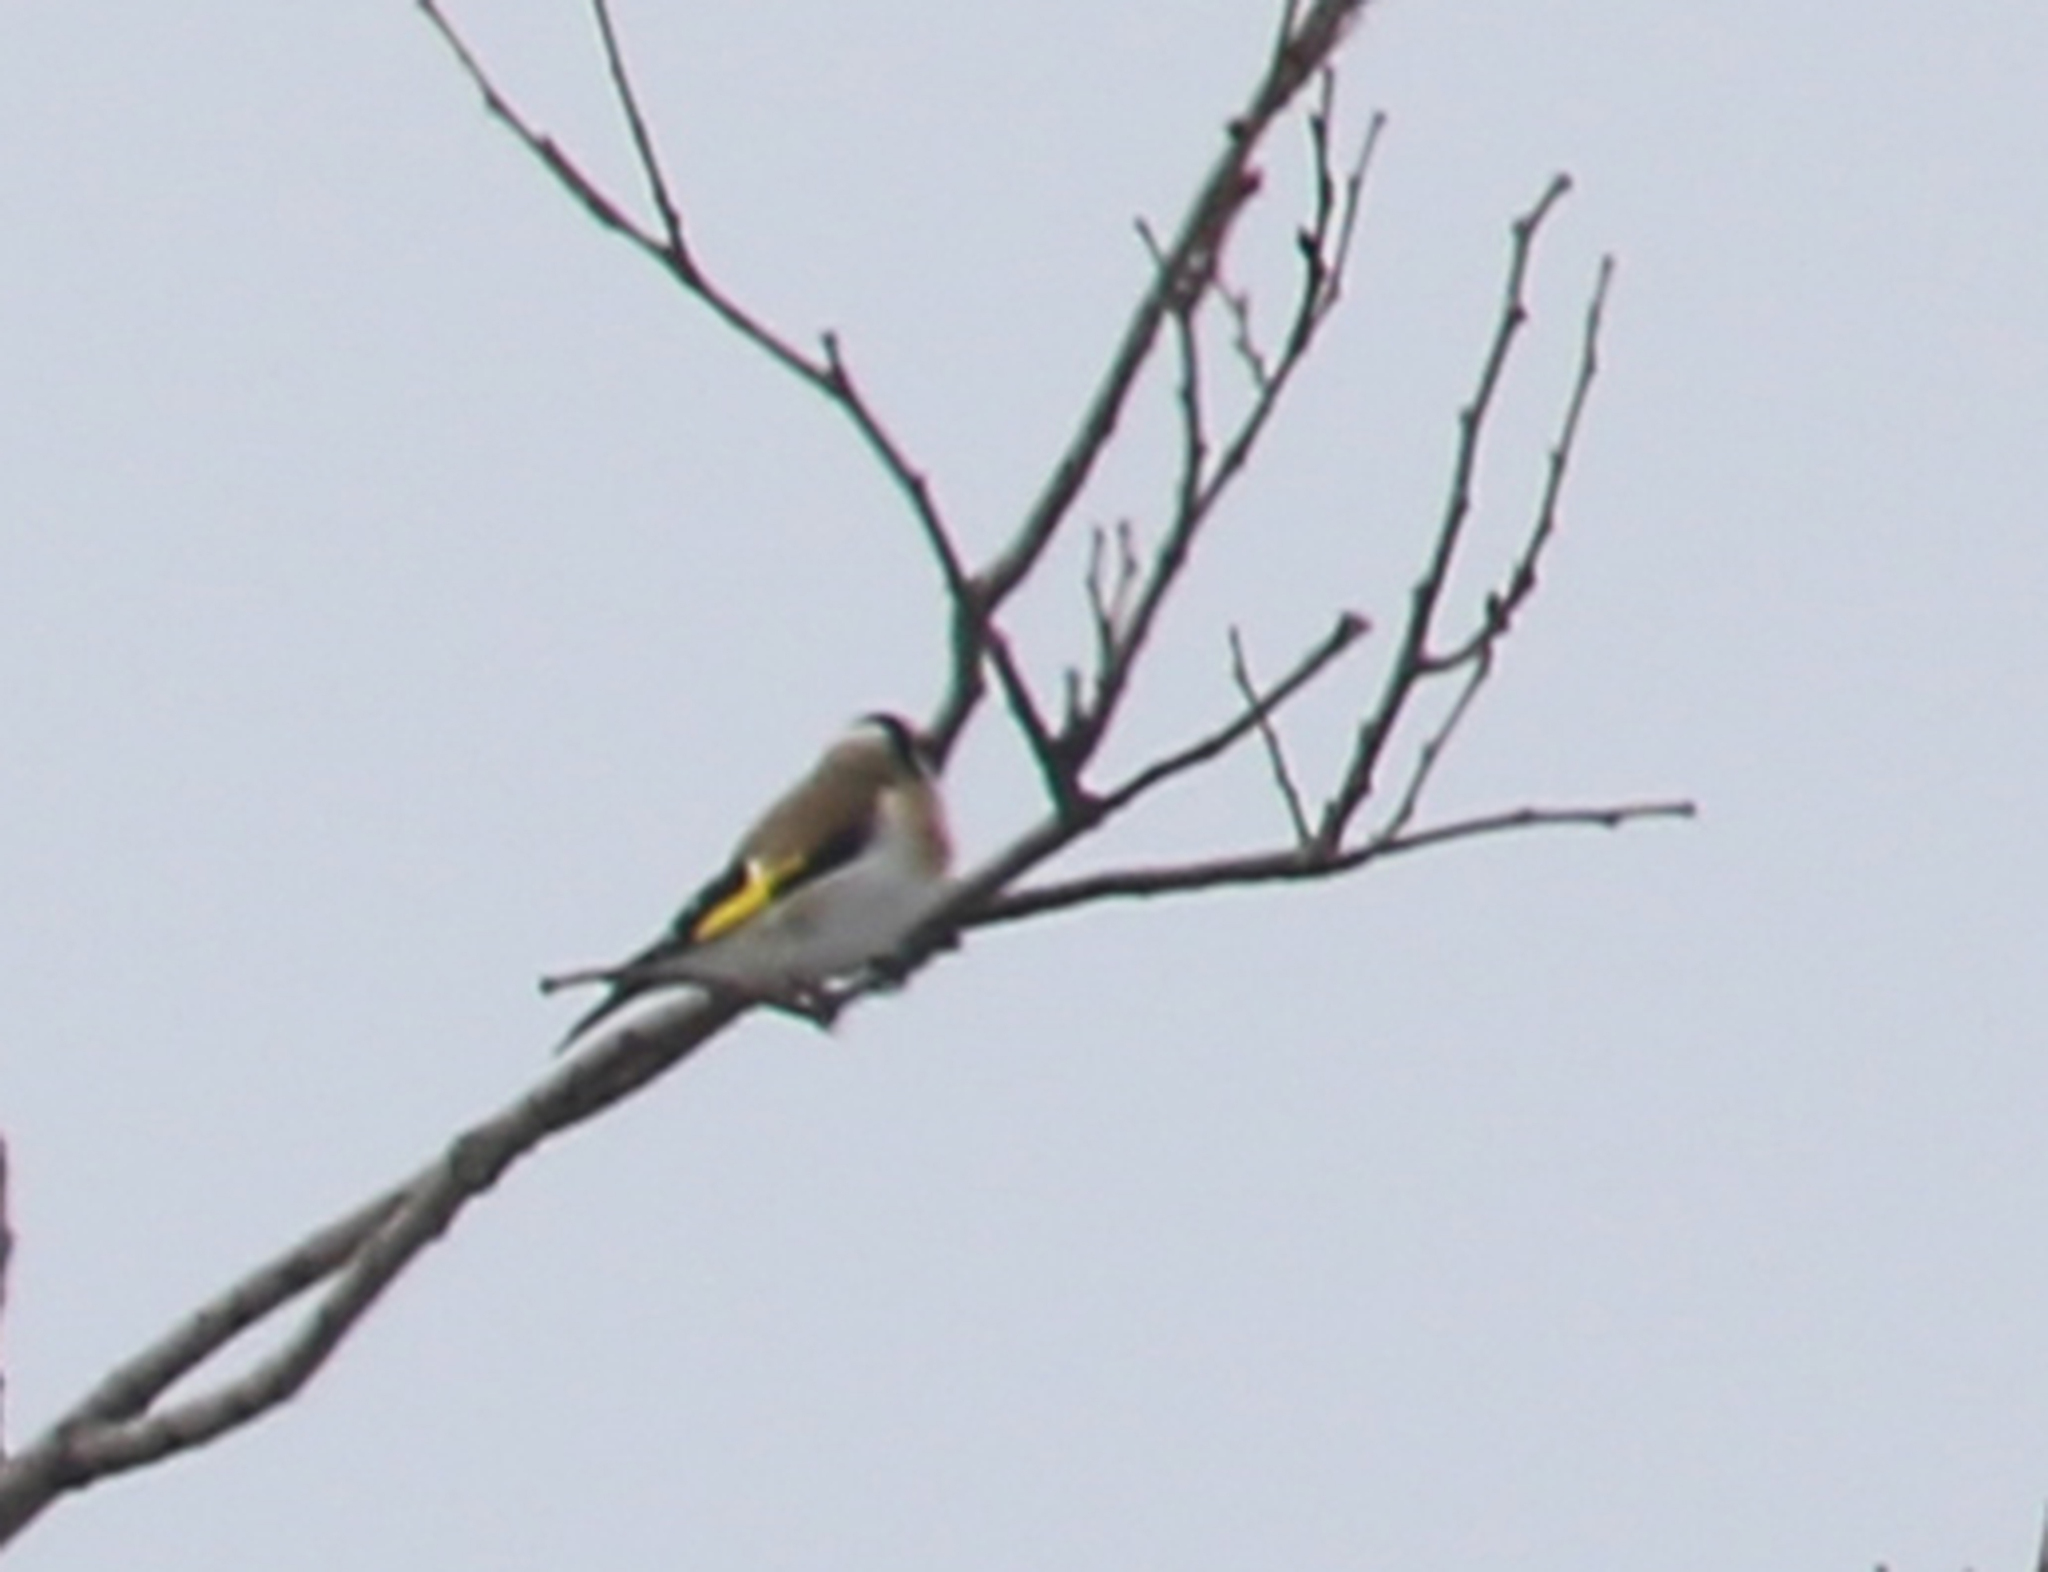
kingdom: Animalia
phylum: Chordata
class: Aves
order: Passeriformes
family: Fringillidae
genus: Carduelis
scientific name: Carduelis carduelis
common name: European goldfinch
